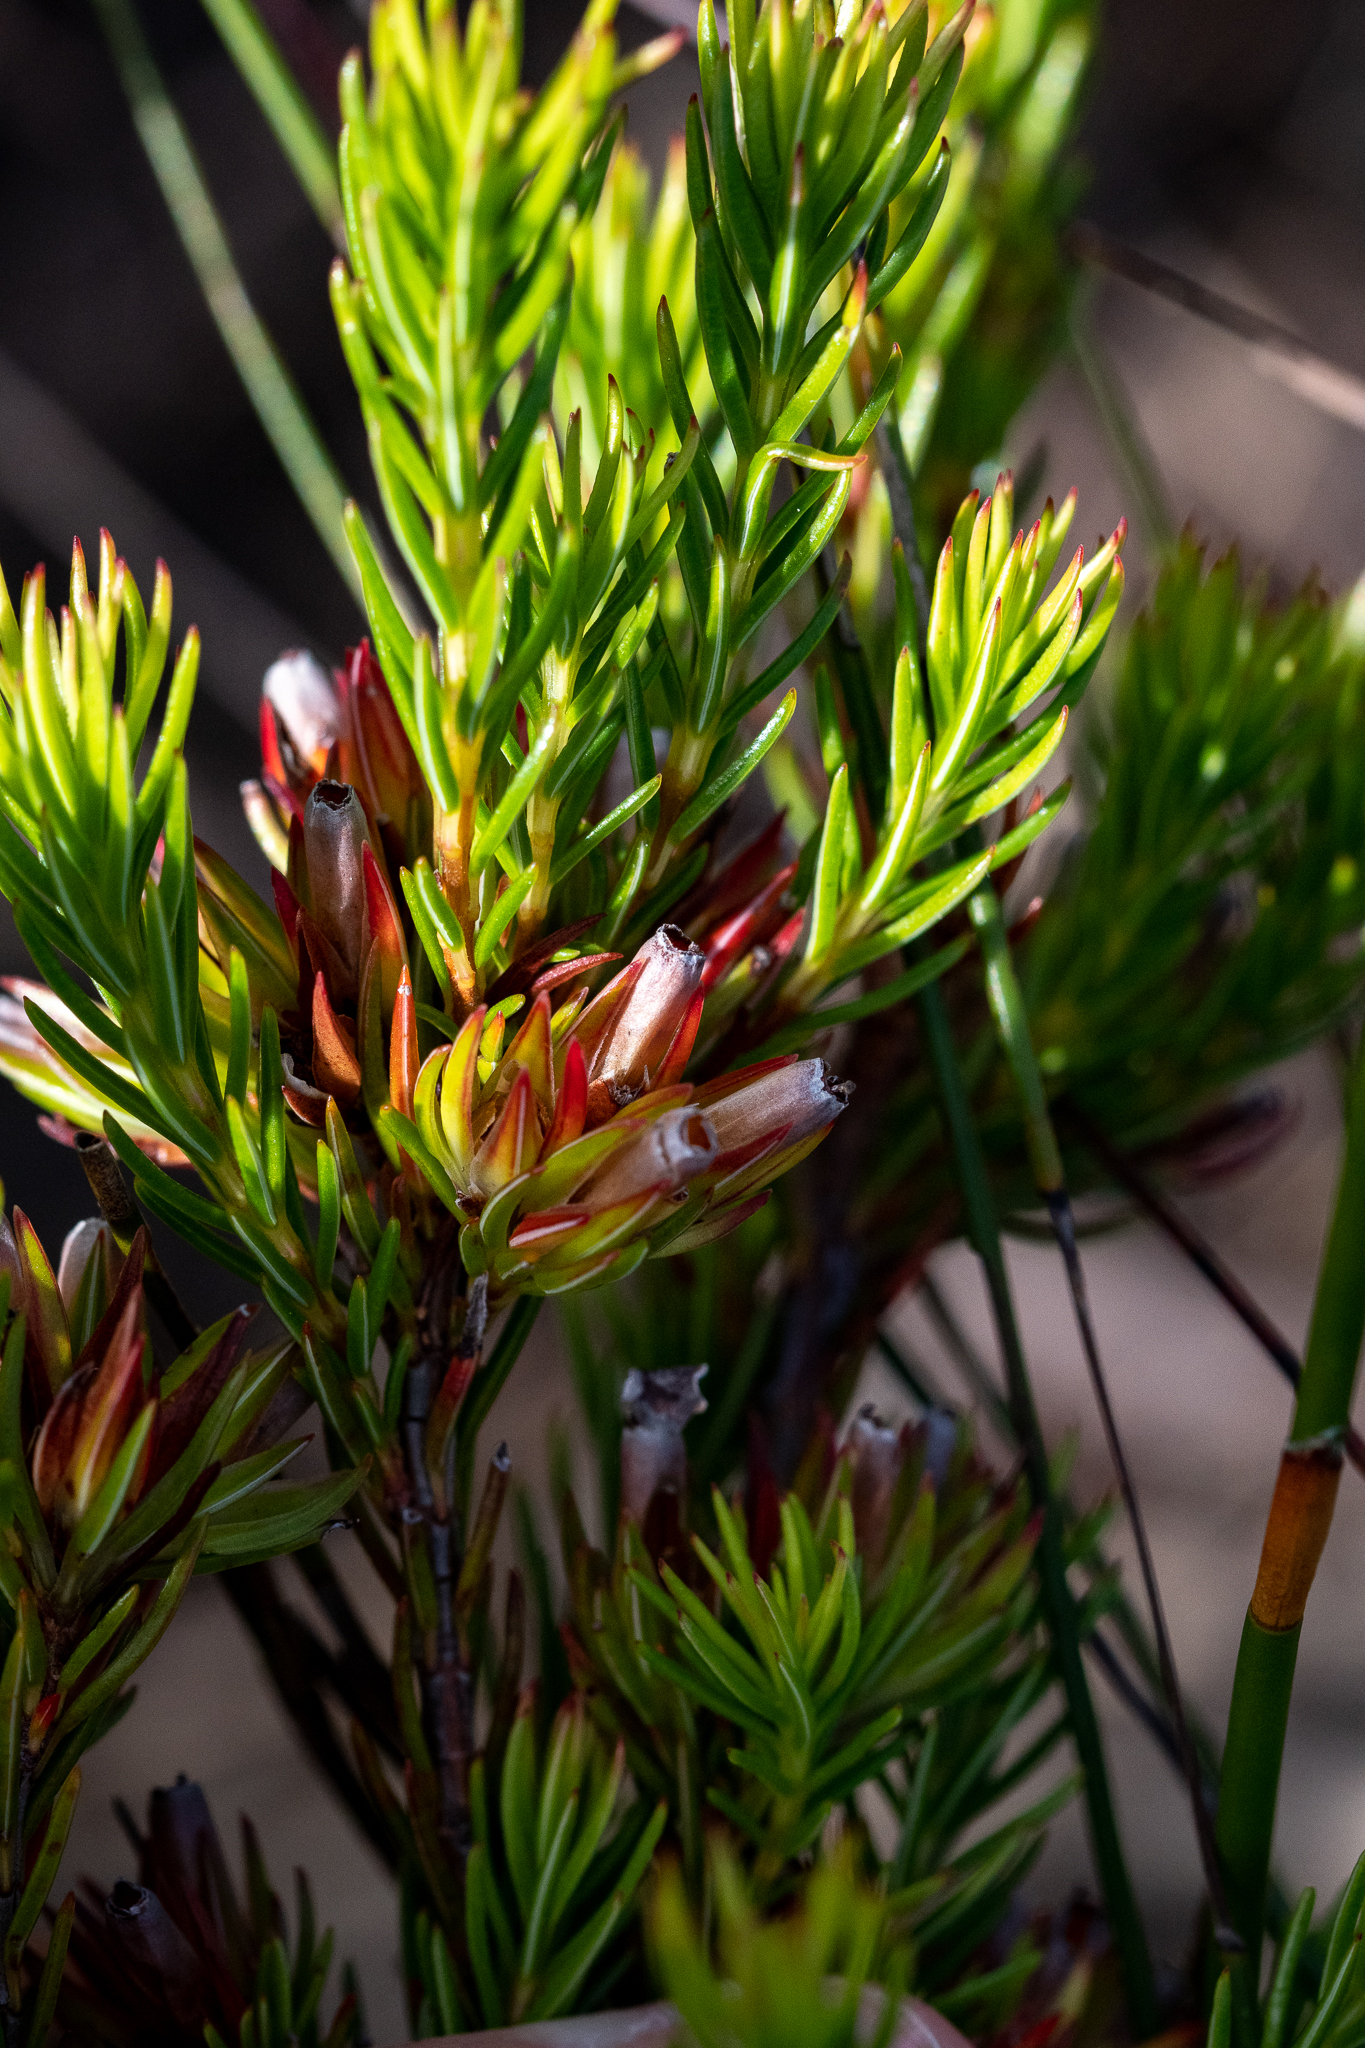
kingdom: Plantae
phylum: Tracheophyta
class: Magnoliopsida
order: Ericales
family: Ericaceae
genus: Erica
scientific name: Erica fastigiata
